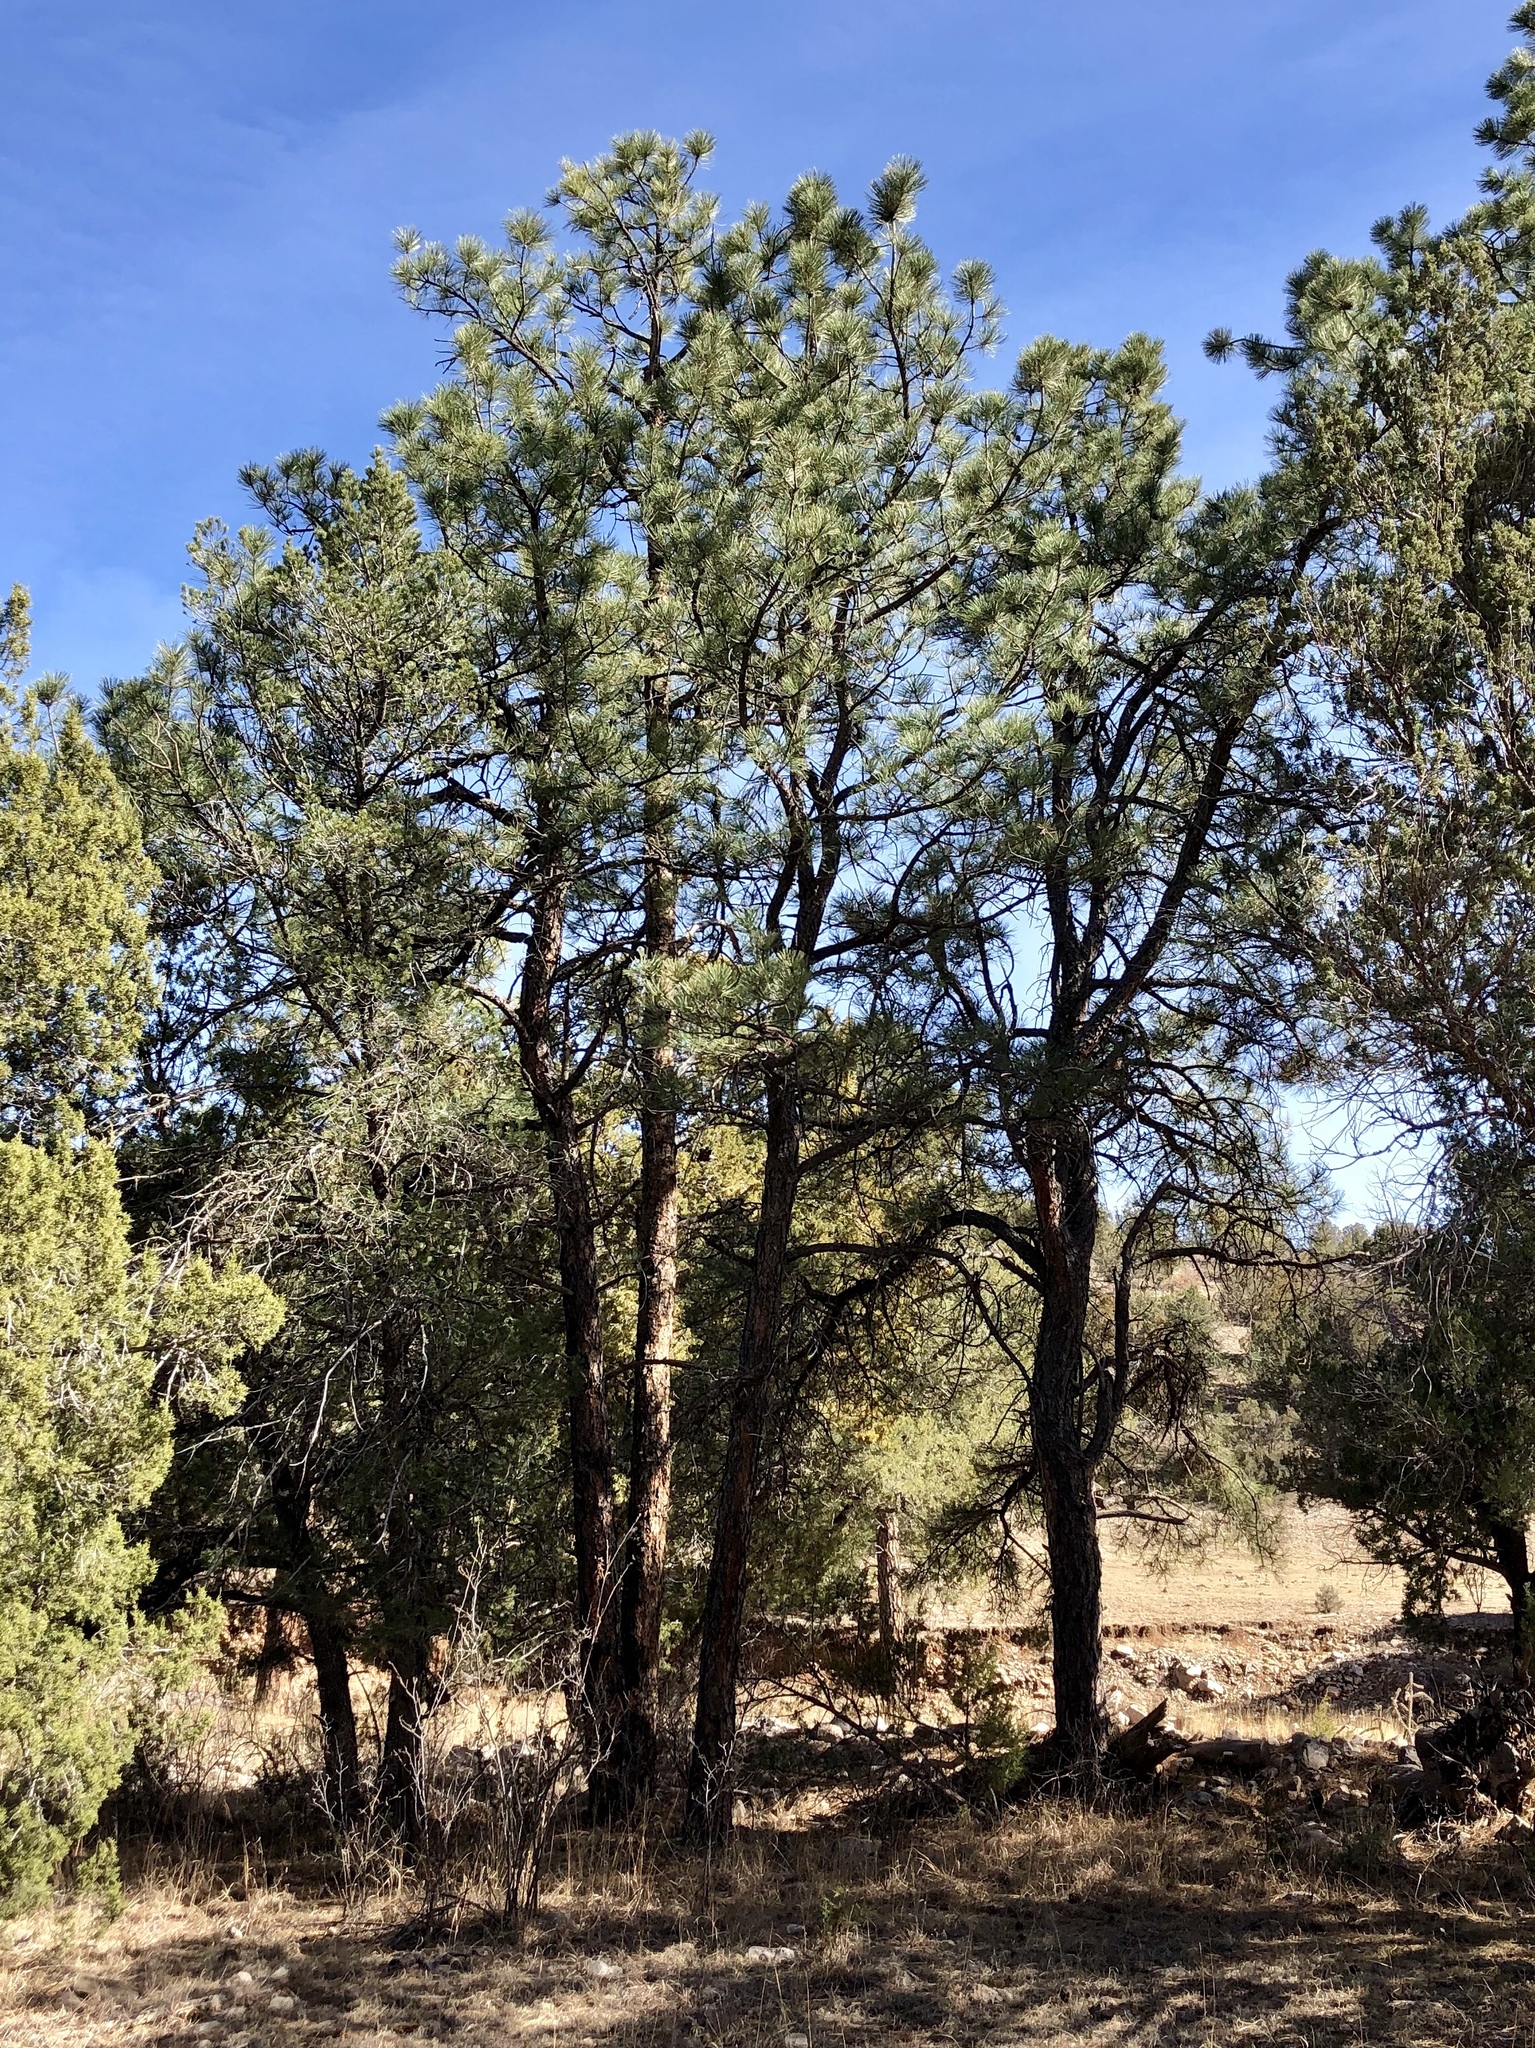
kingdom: Plantae
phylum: Tracheophyta
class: Pinopsida
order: Pinales
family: Pinaceae
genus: Pinus
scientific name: Pinus ponderosa
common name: Western yellow-pine
